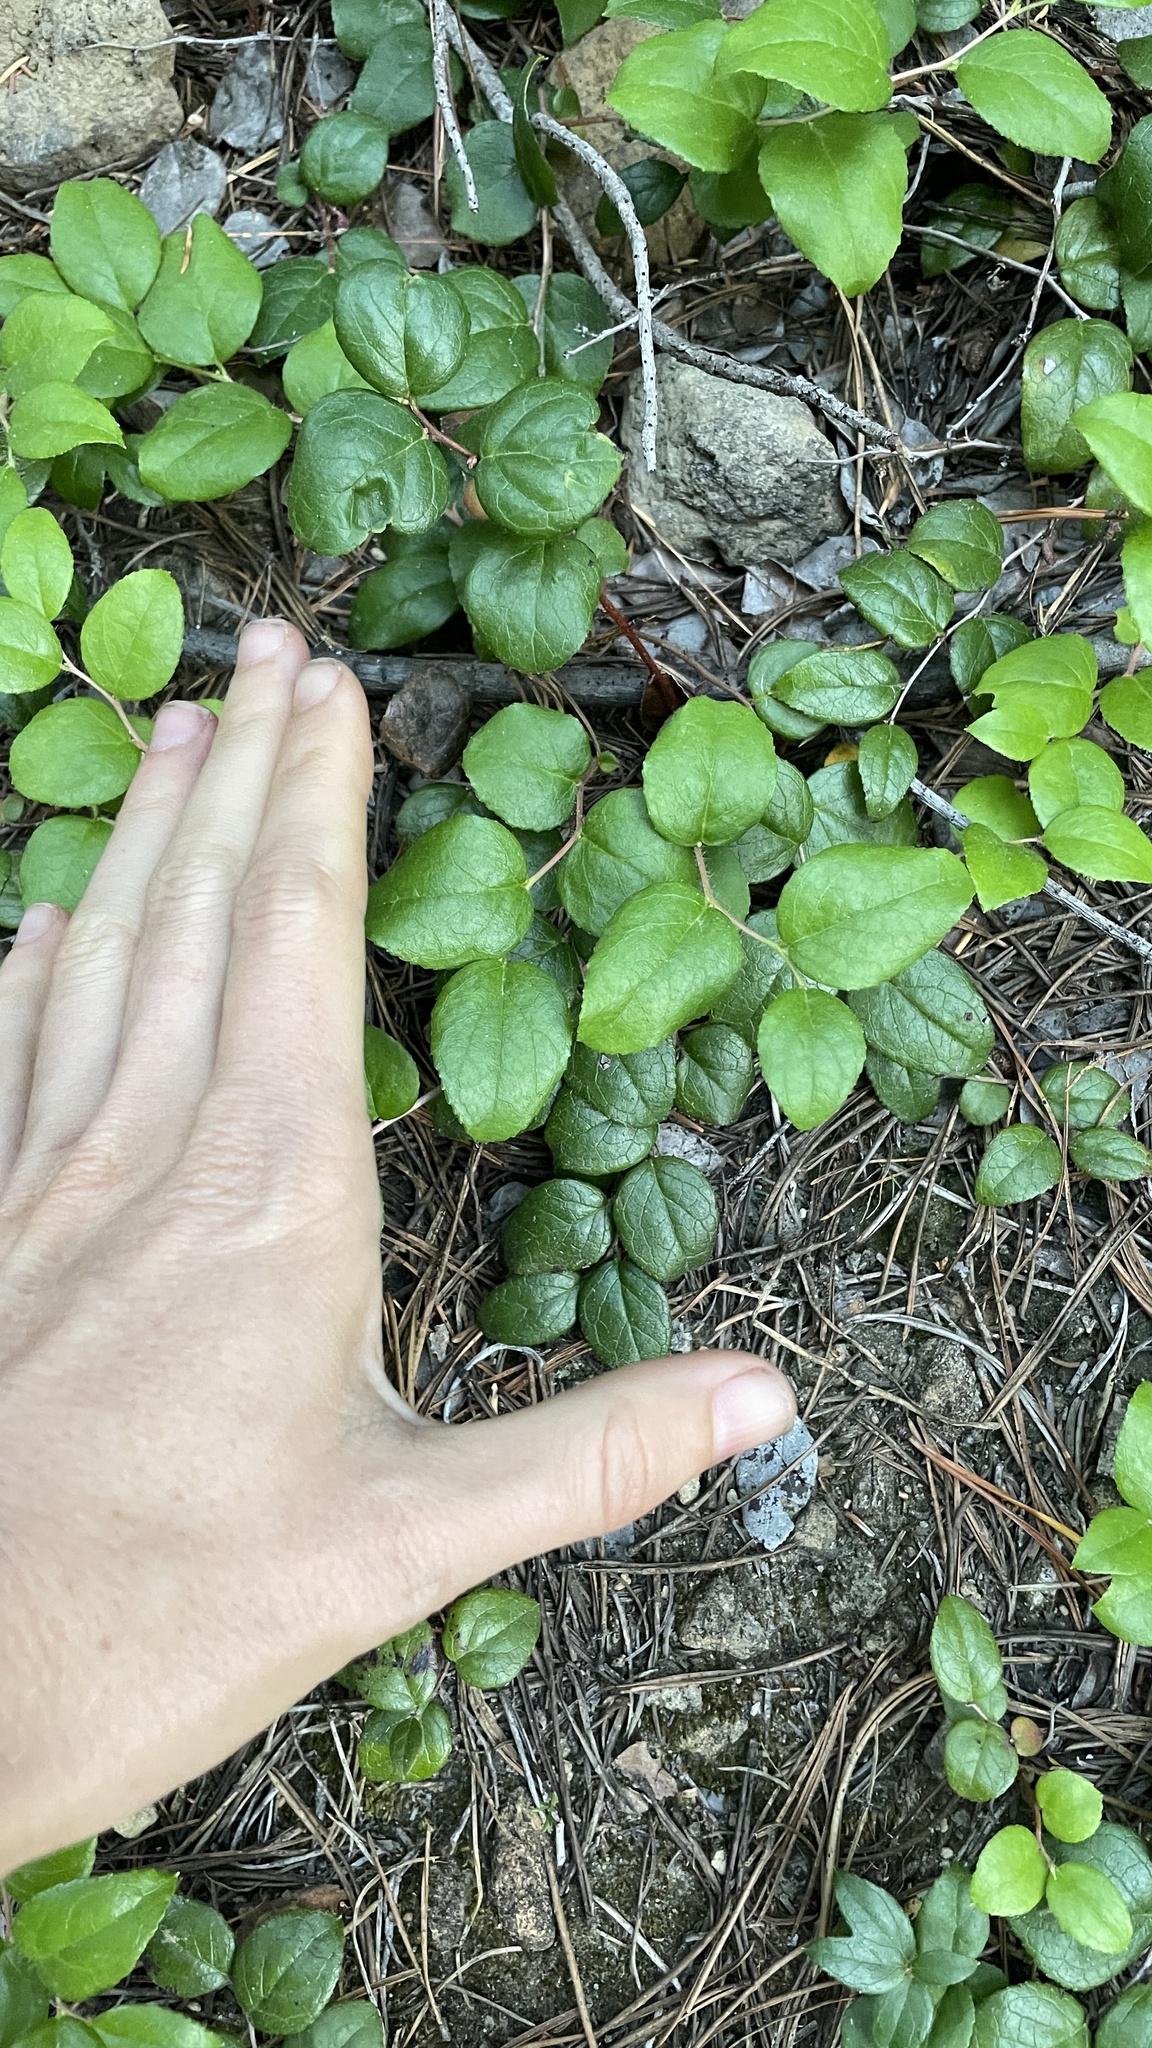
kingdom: Plantae
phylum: Tracheophyta
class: Magnoliopsida
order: Ericales
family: Ericaceae
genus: Gaultheria
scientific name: Gaultheria ovatifolia
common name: Oregon wintergreen
